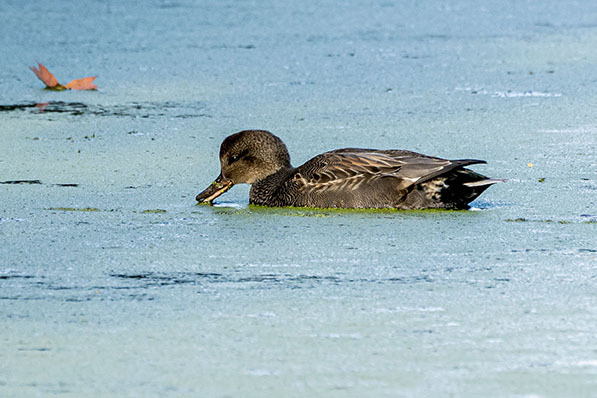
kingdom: Animalia
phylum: Chordata
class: Aves
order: Anseriformes
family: Anatidae
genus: Mareca
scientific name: Mareca strepera
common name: Gadwall
